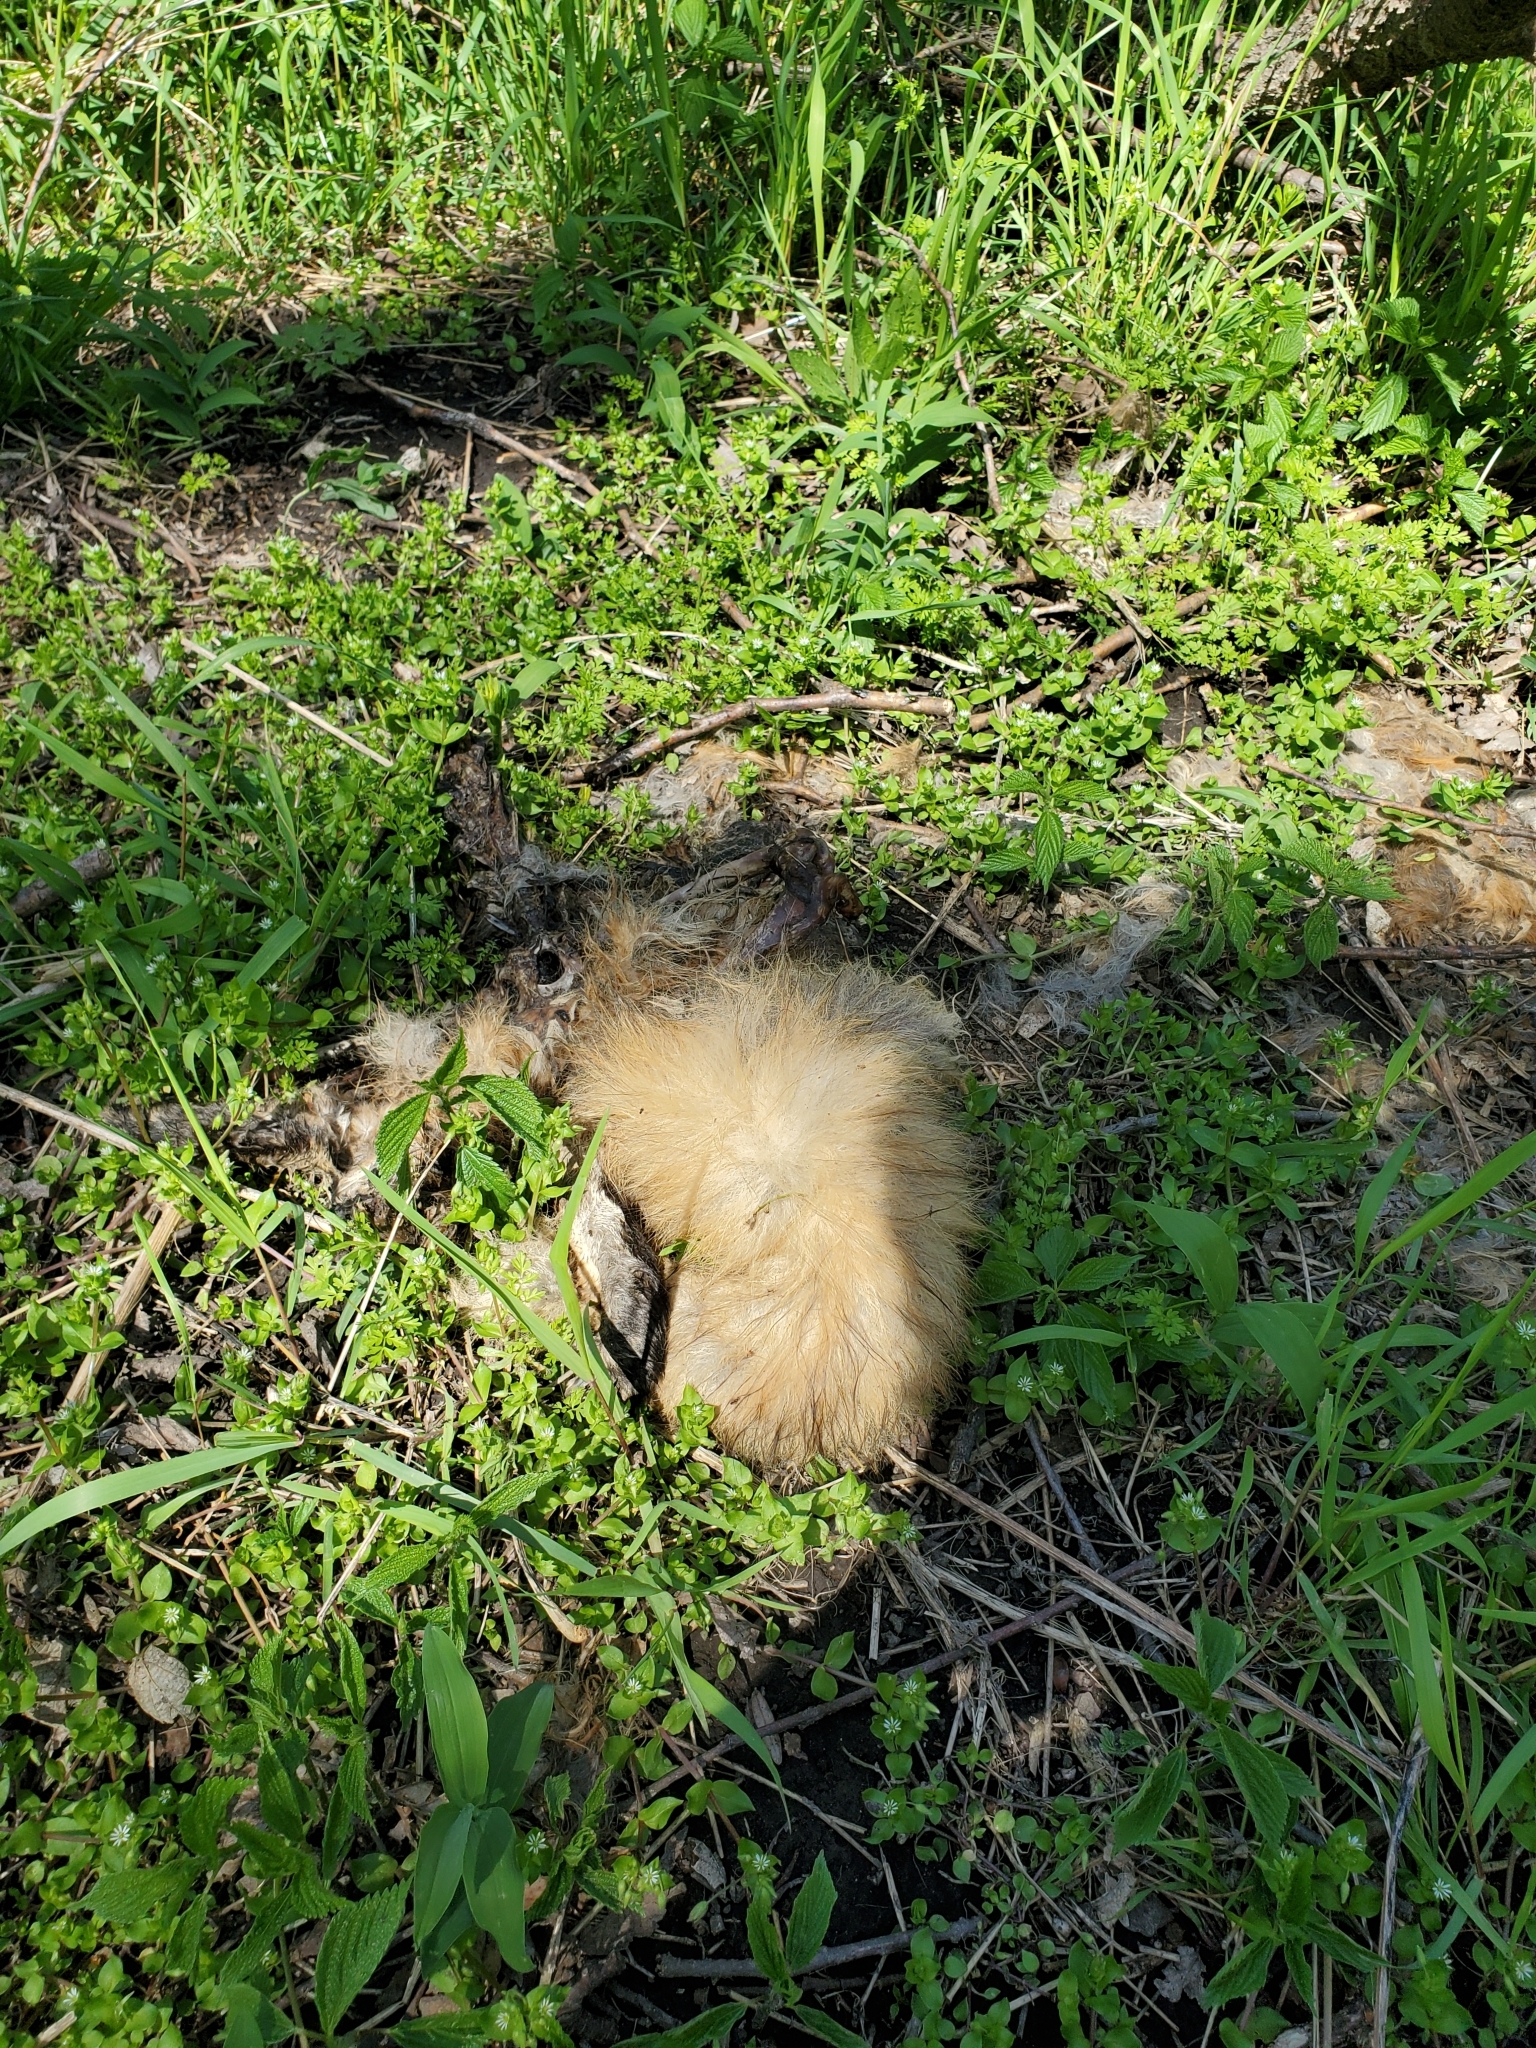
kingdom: Animalia
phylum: Chordata
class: Mammalia
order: Carnivora
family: Canidae
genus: Vulpes
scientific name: Vulpes vulpes
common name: Red fox
